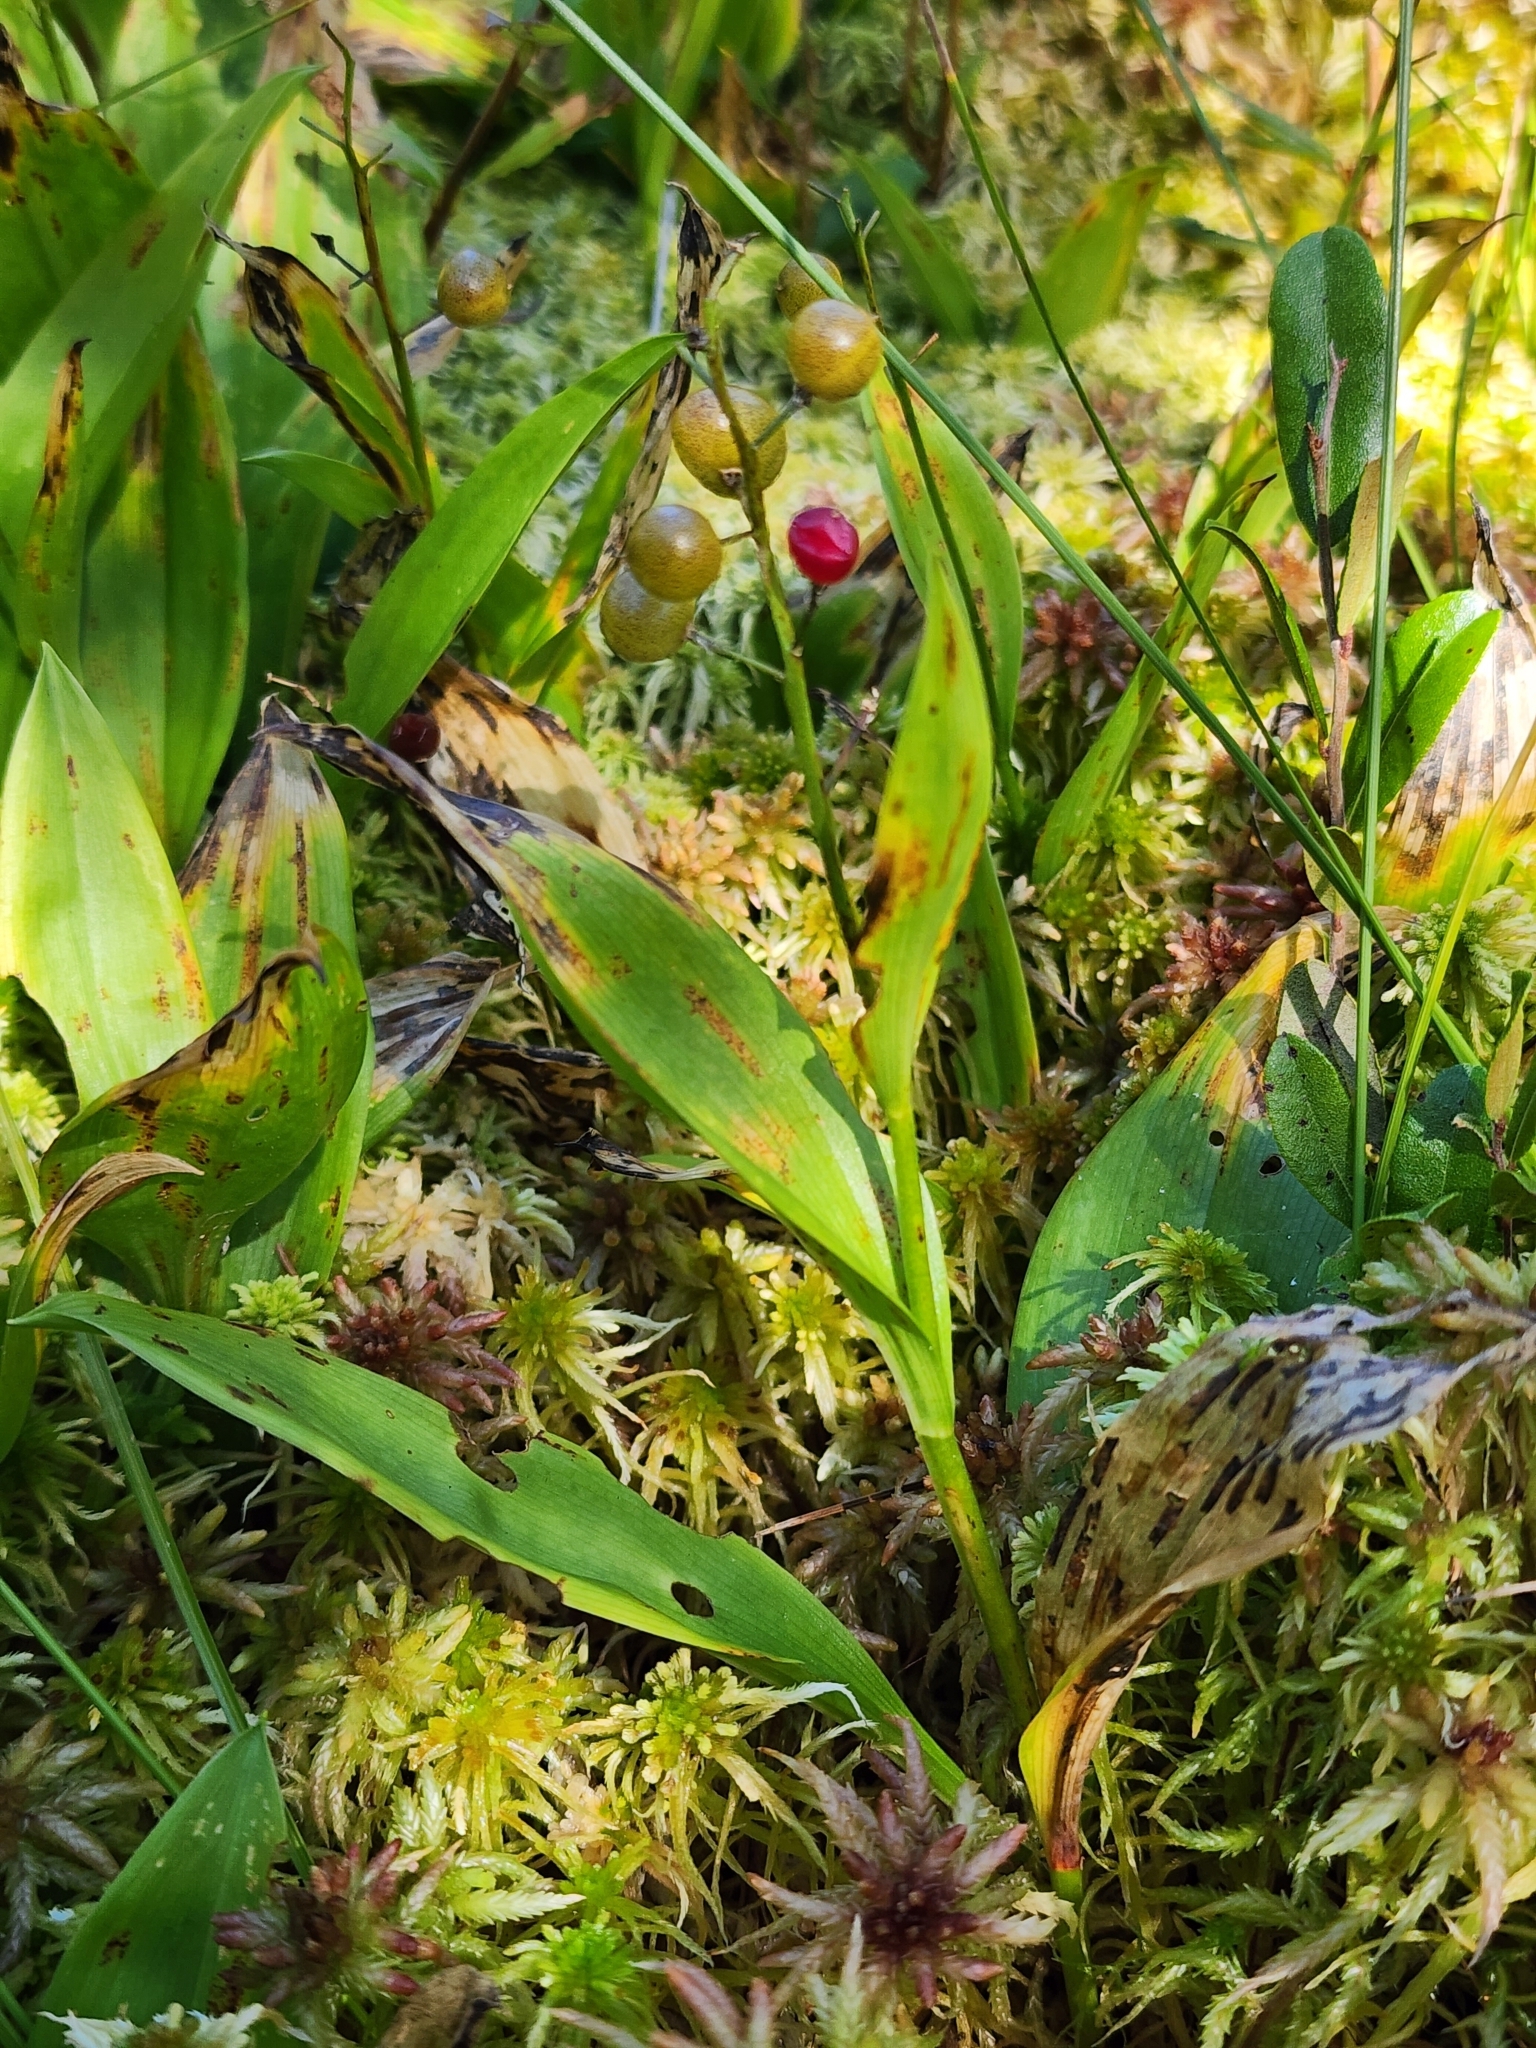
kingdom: Plantae
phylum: Tracheophyta
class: Liliopsida
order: Asparagales
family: Asparagaceae
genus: Maianthemum
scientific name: Maianthemum trifolium
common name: Swamp false solomon's seal
